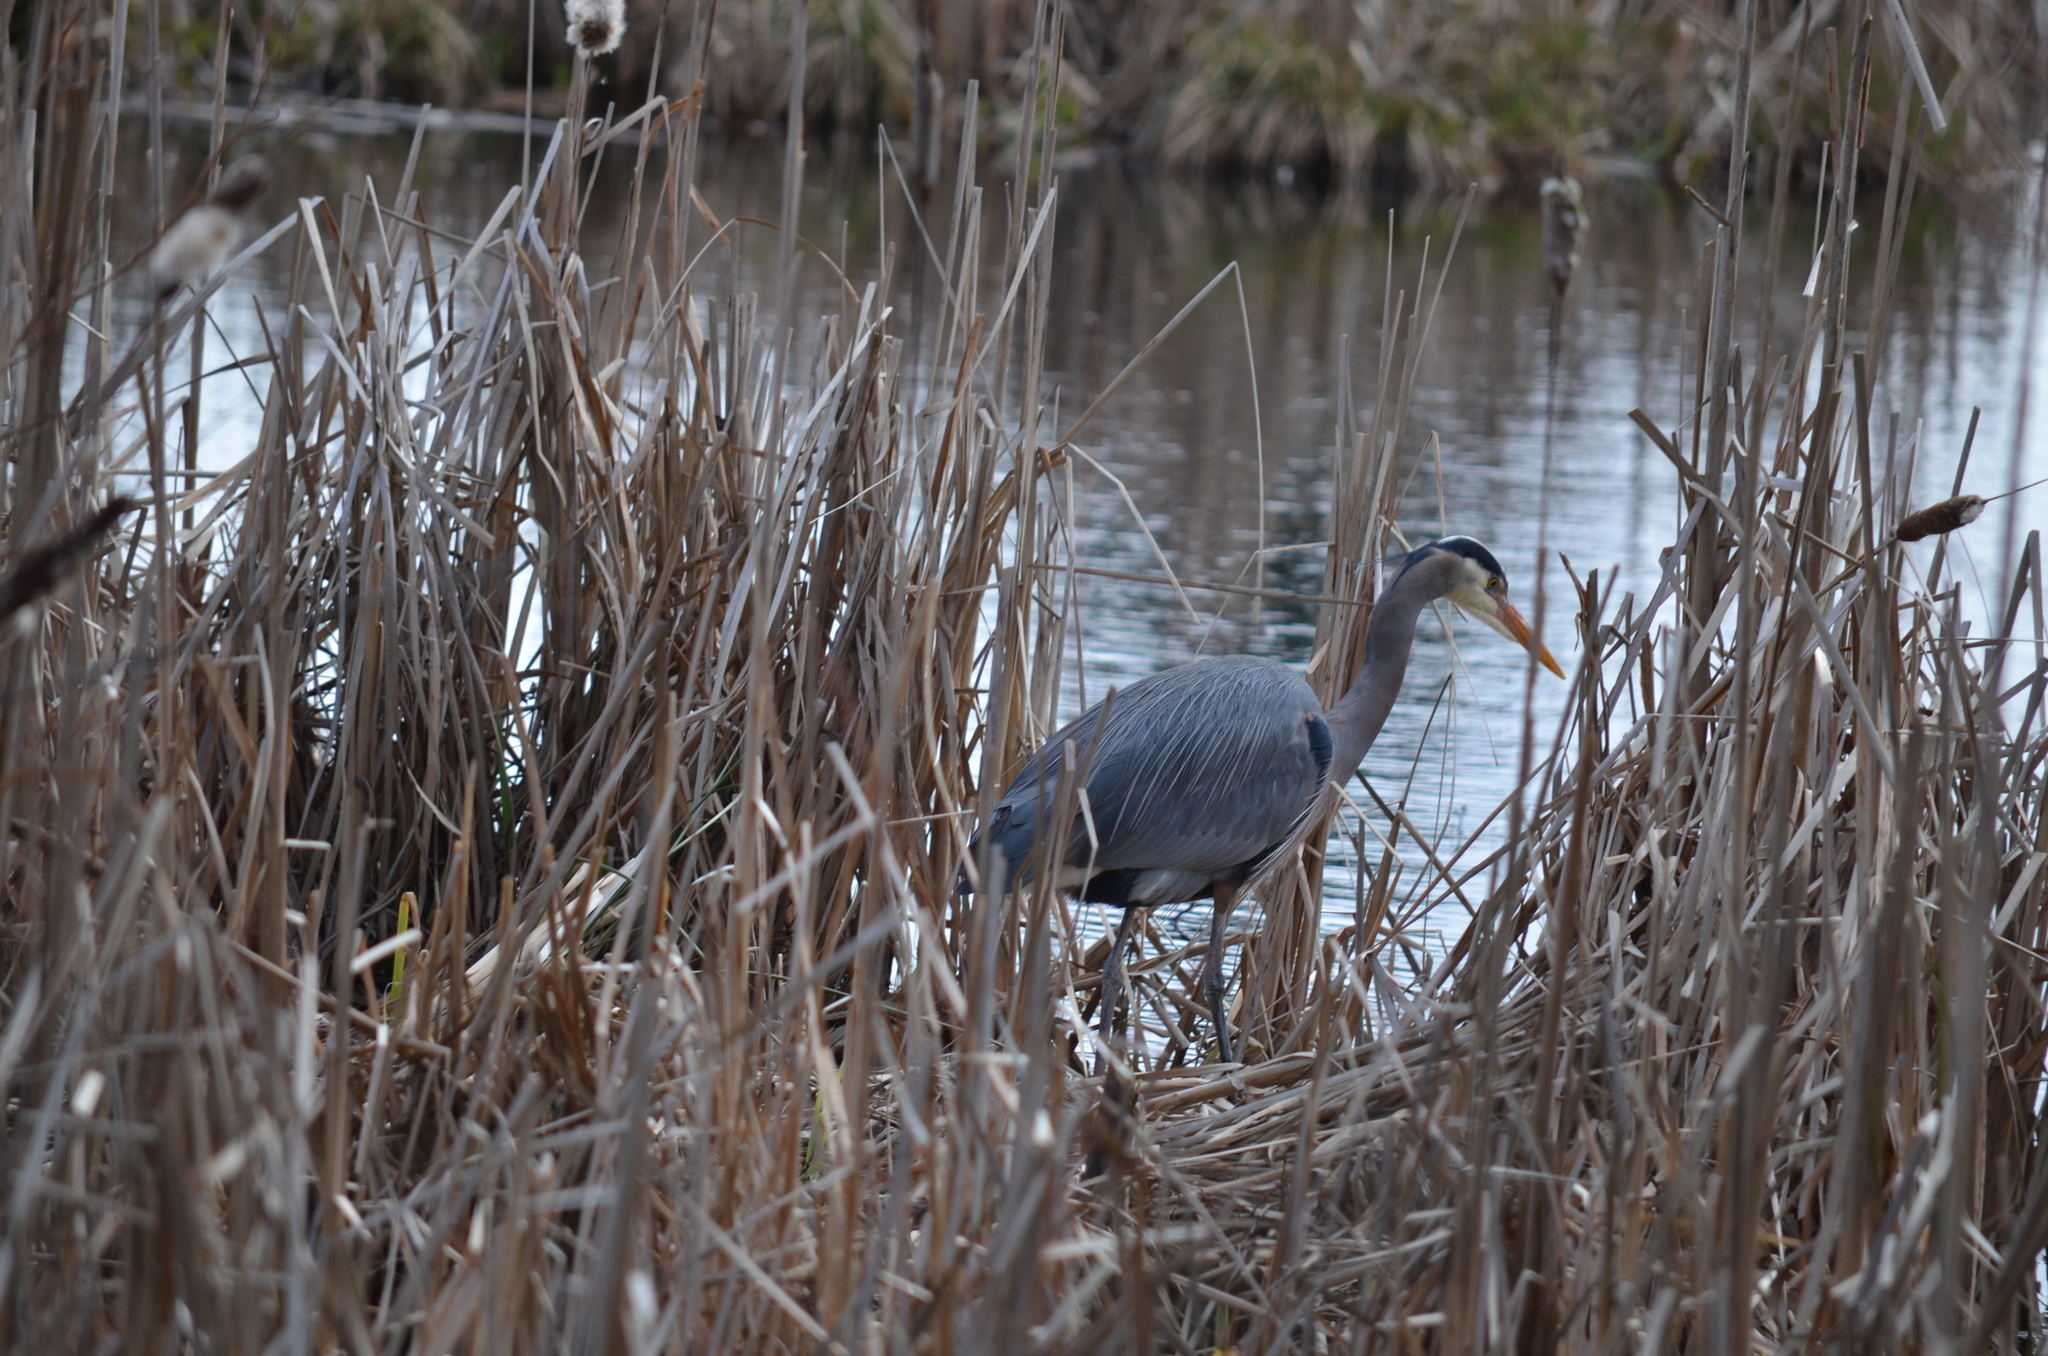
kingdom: Animalia
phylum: Chordata
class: Aves
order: Pelecaniformes
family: Ardeidae
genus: Ardea
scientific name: Ardea herodias
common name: Great blue heron
